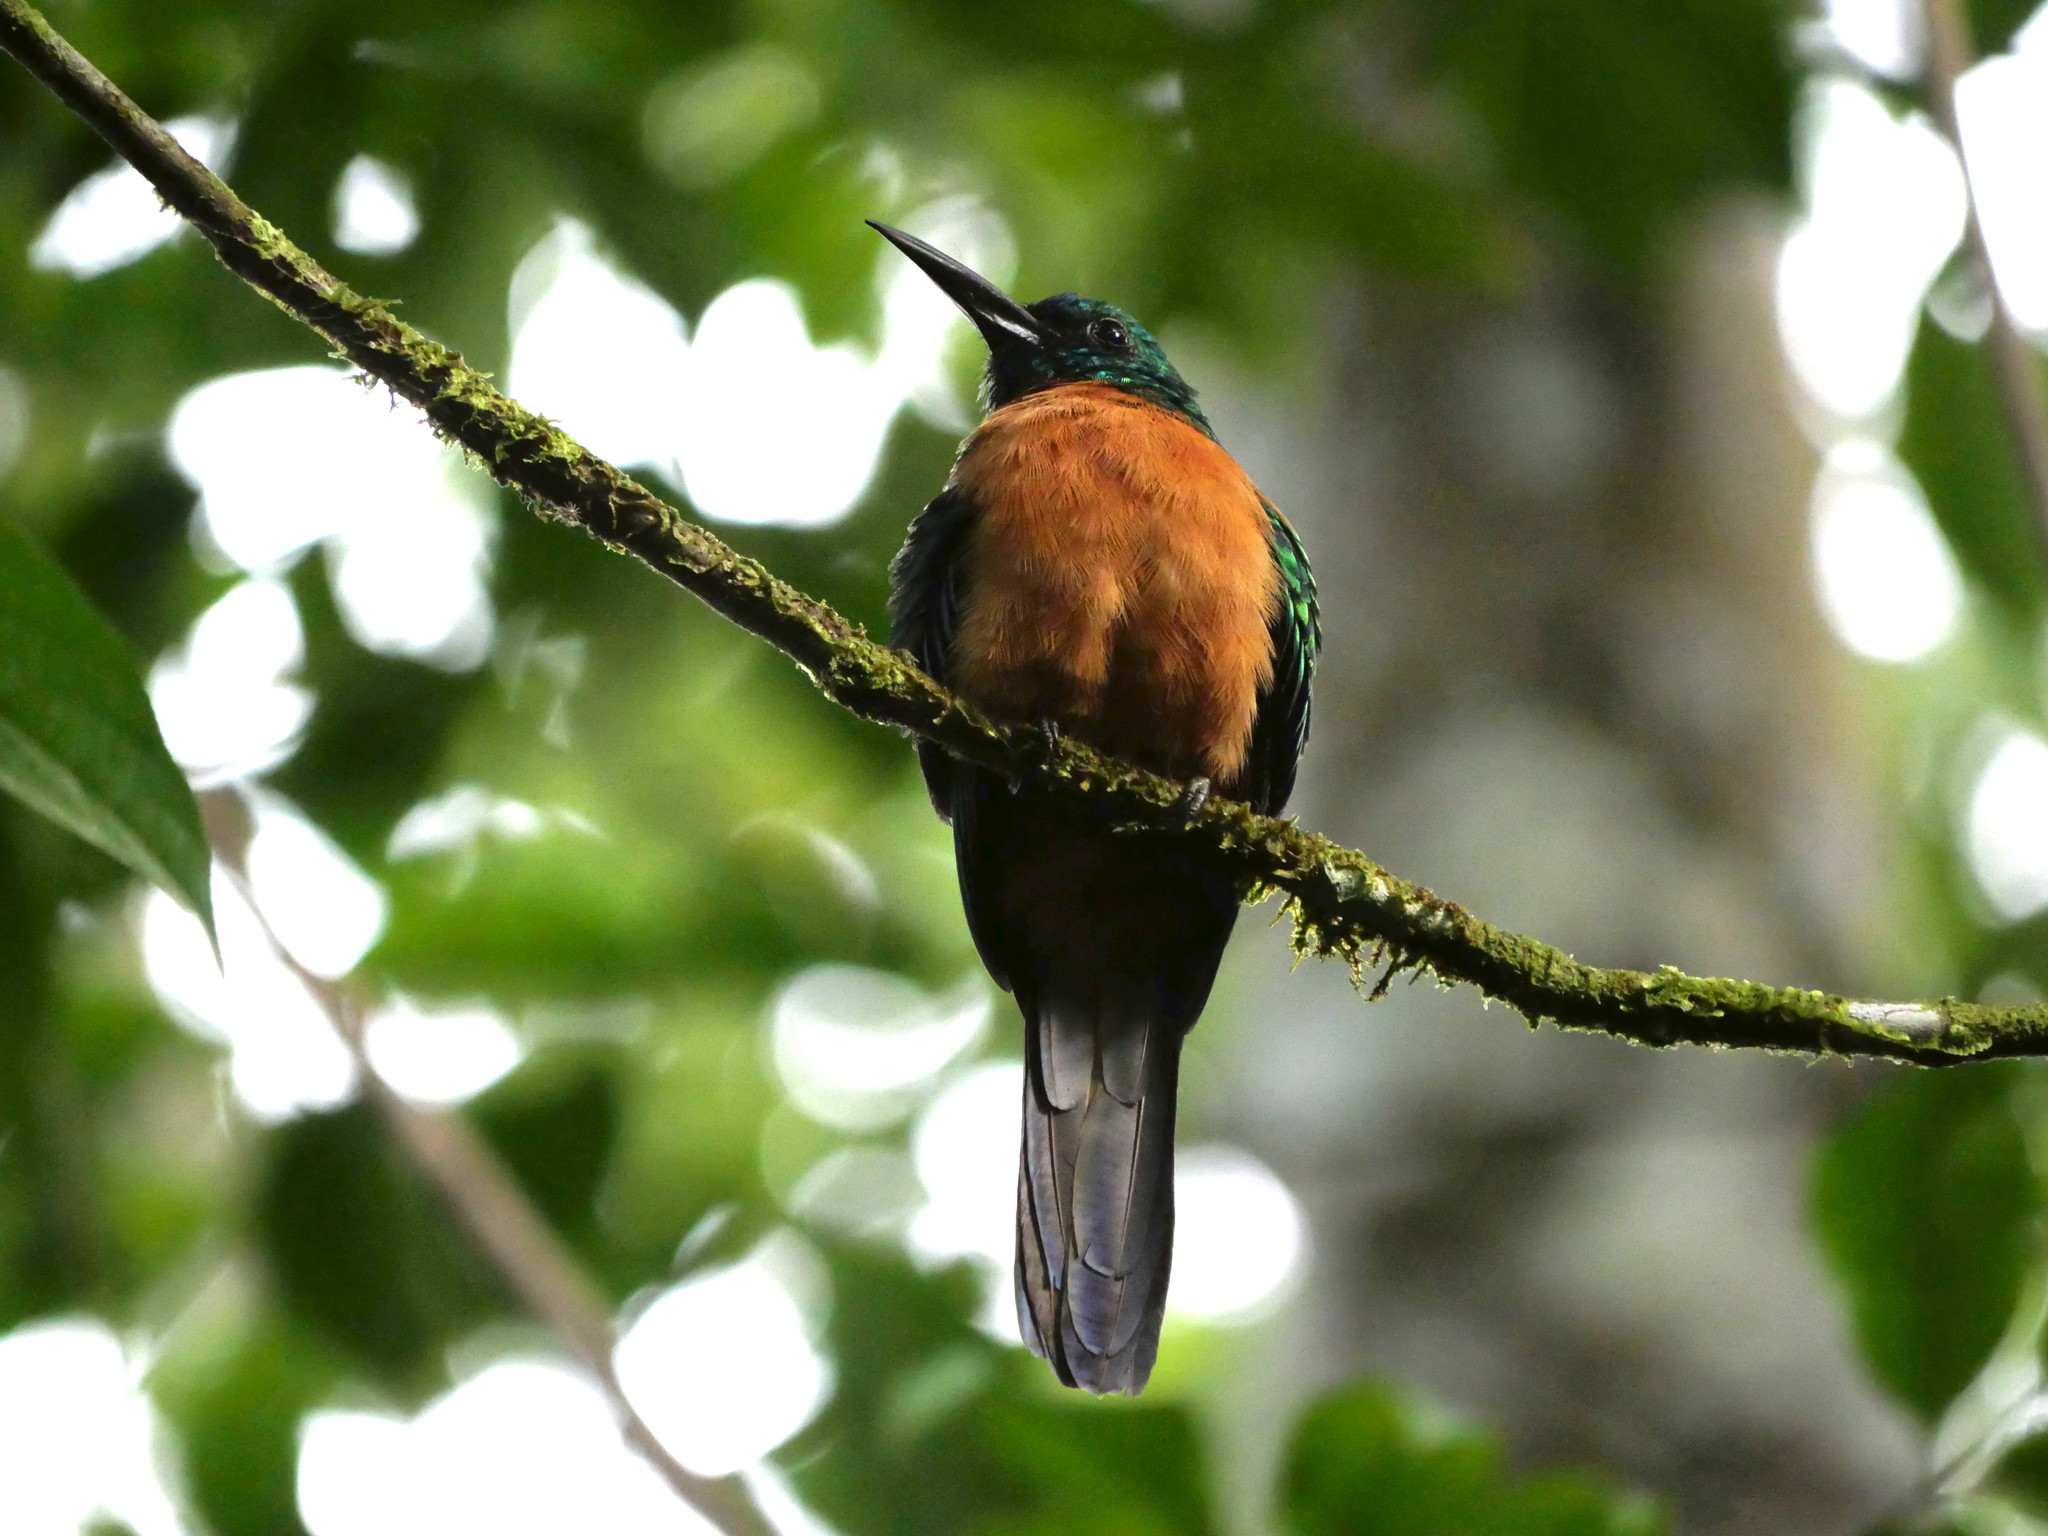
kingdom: Animalia
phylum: Chordata
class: Aves
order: Piciformes
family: Galbulidae
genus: Jacamerops
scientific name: Jacamerops aureus
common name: Great jacamar
